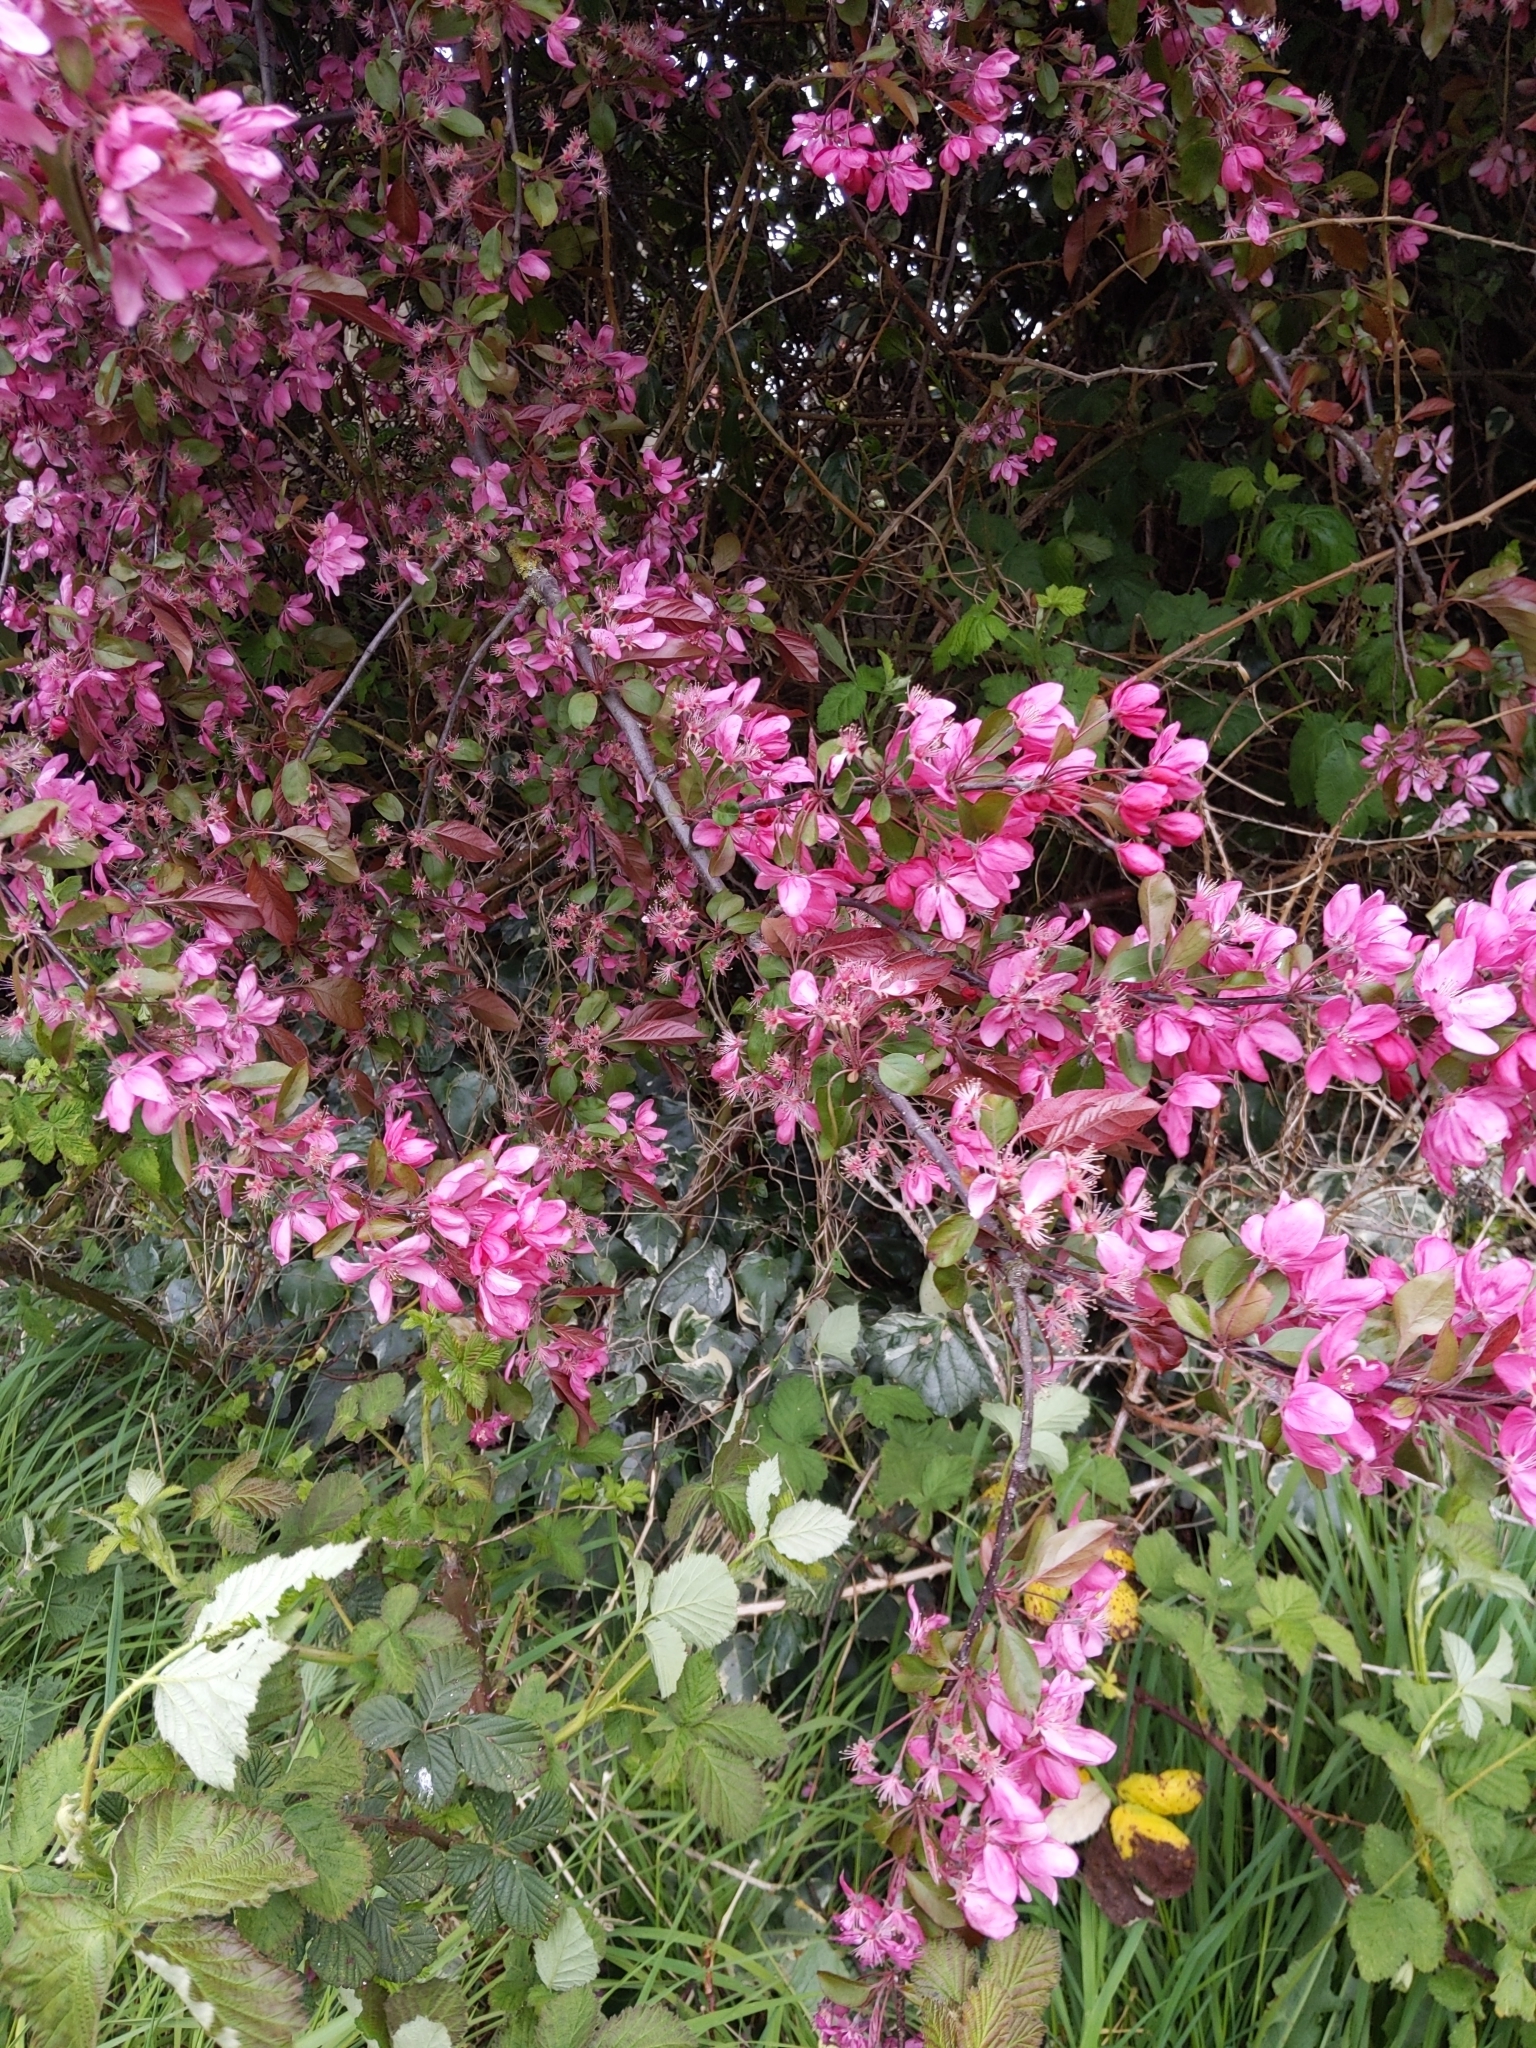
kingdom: Plantae
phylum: Tracheophyta
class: Magnoliopsida
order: Rosales
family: Rosaceae
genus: Malus
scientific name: Malus floribunda
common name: Japanese crab
